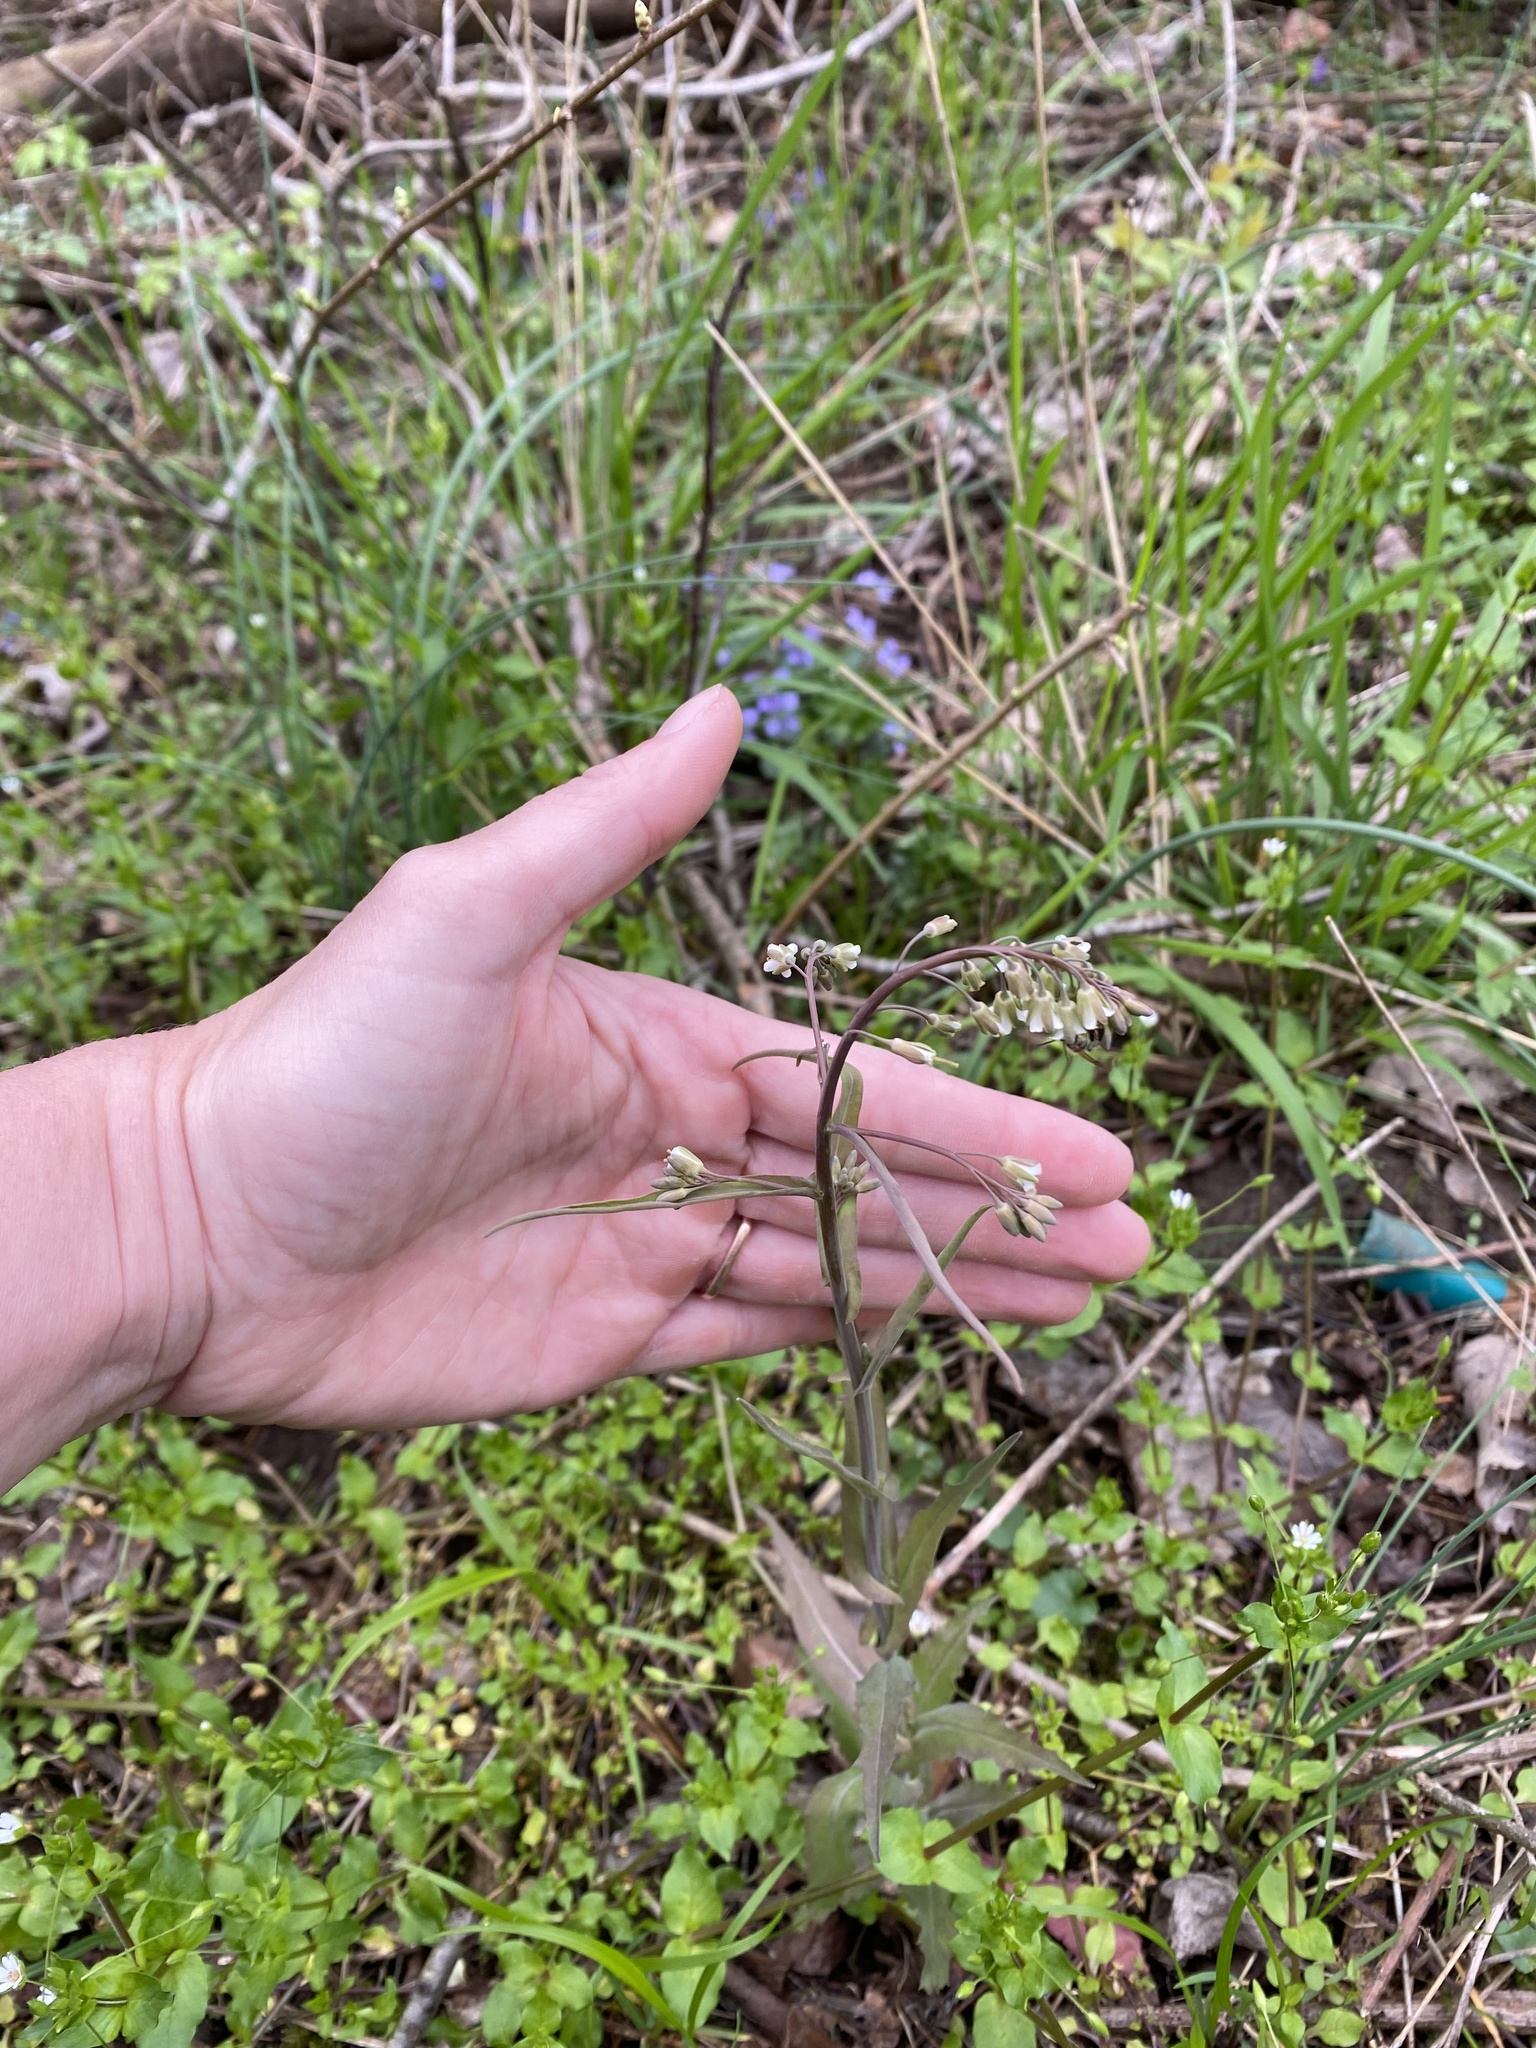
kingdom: Plantae
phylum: Tracheophyta
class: Magnoliopsida
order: Brassicales
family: Brassicaceae
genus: Borodinia
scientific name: Borodinia laevigata
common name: Smooth rockcress
